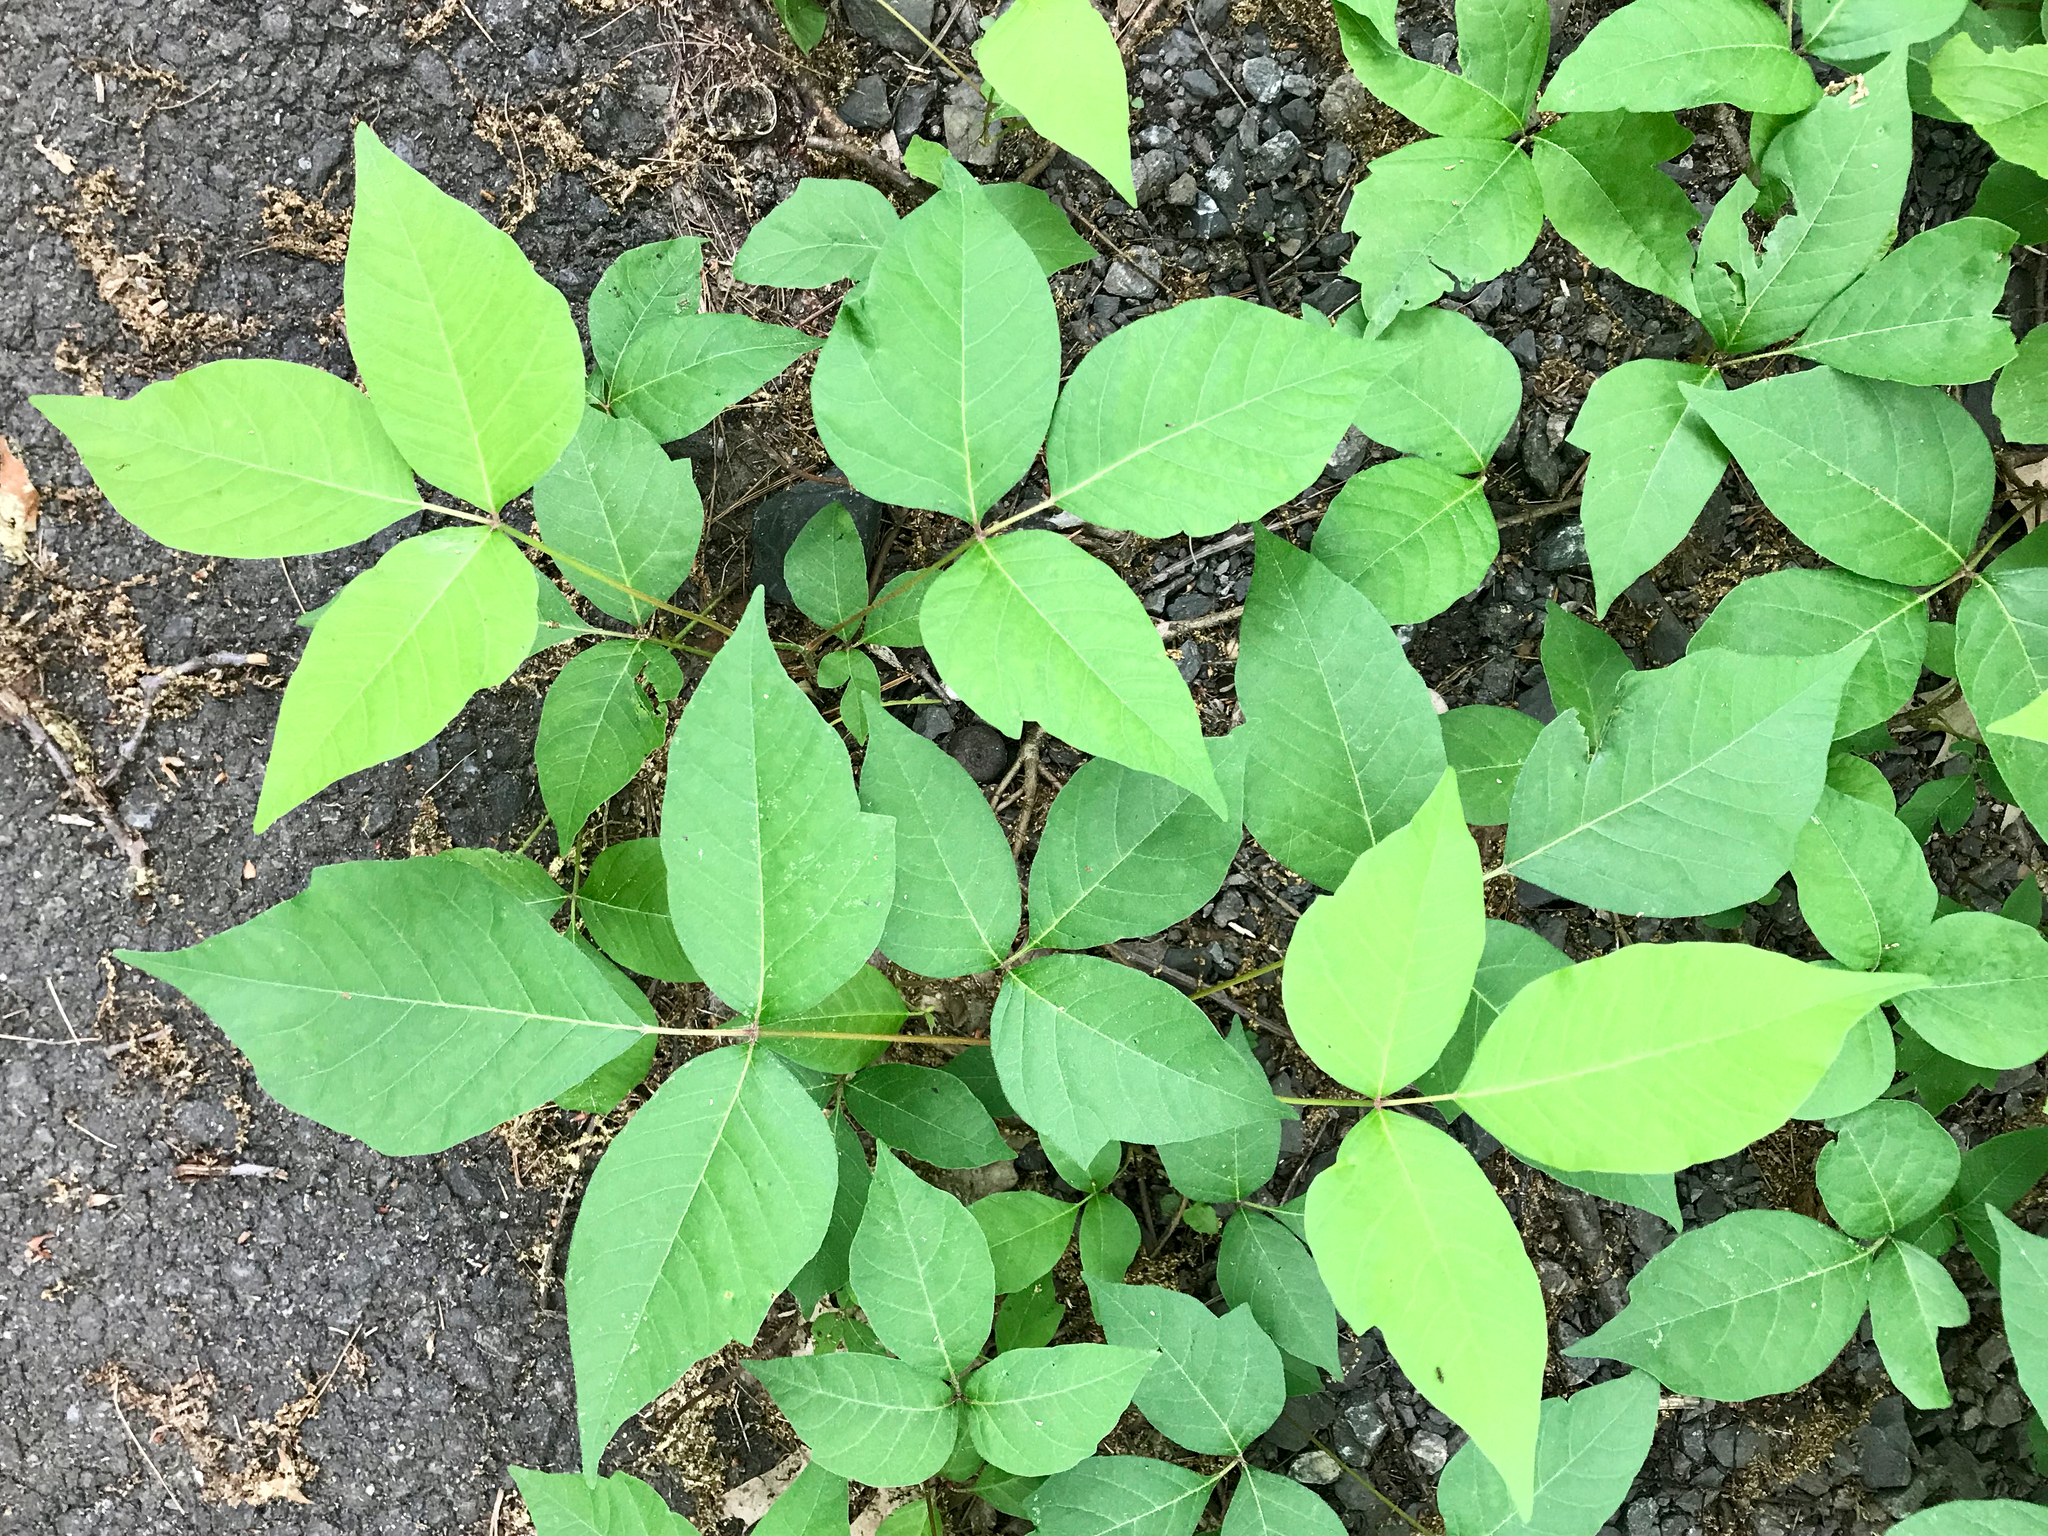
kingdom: Plantae
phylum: Tracheophyta
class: Magnoliopsida
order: Sapindales
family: Anacardiaceae
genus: Toxicodendron
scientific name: Toxicodendron radicans
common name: Poison ivy
